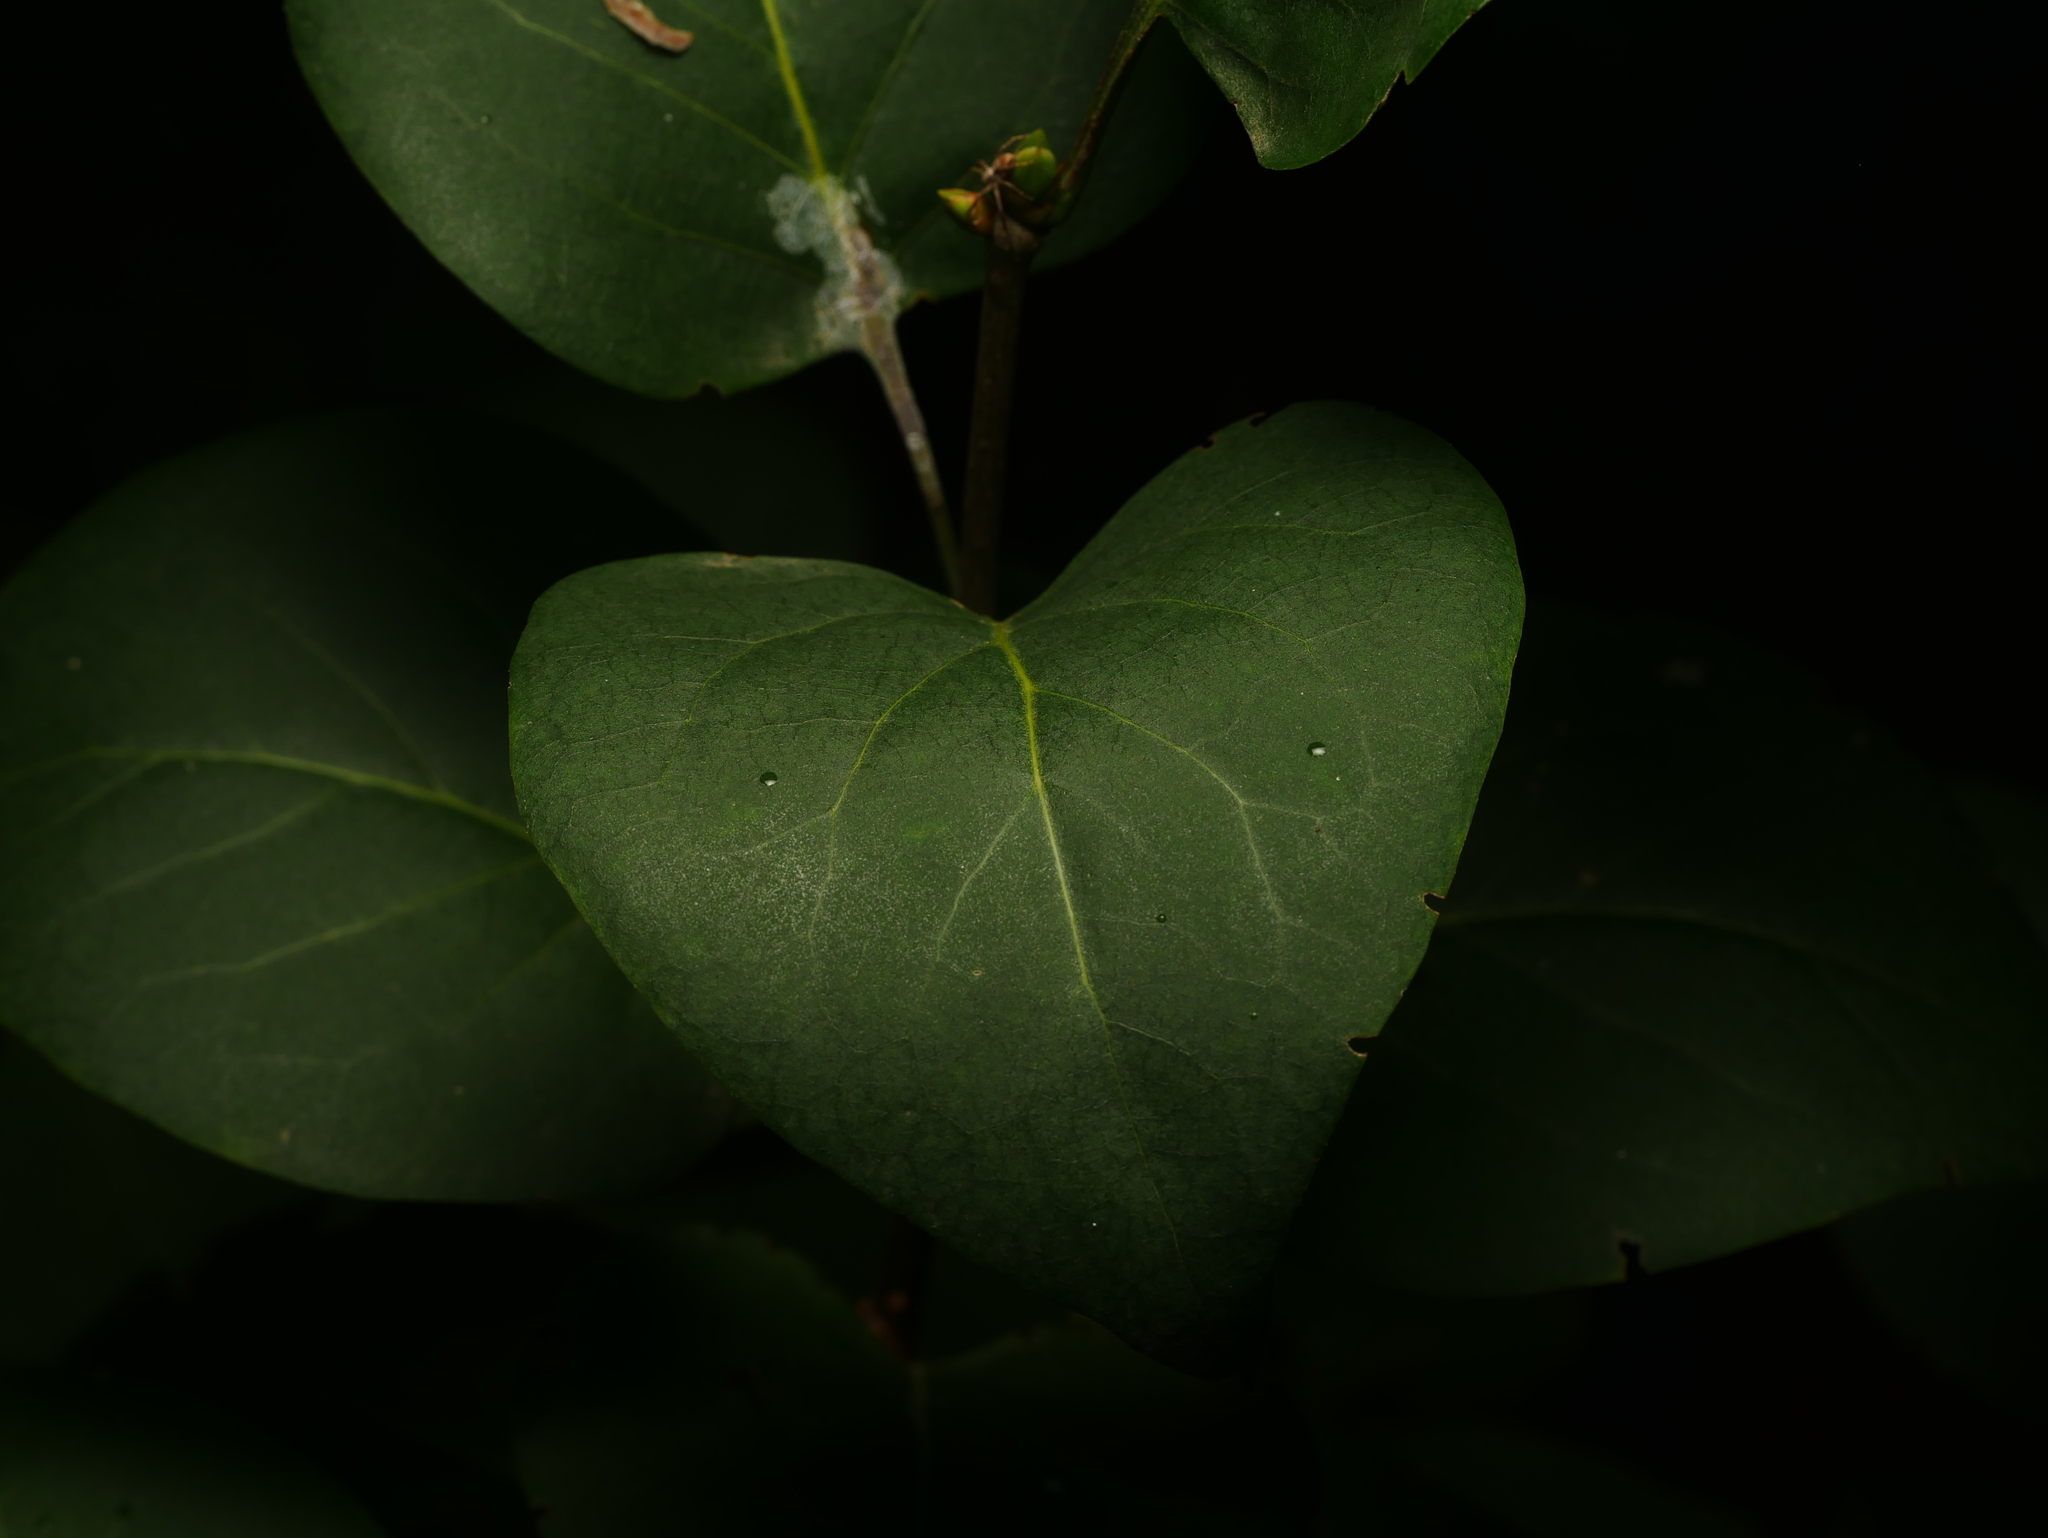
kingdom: Plantae
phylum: Tracheophyta
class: Magnoliopsida
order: Lamiales
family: Oleaceae
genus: Syringa
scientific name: Syringa vulgaris
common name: Common lilac
